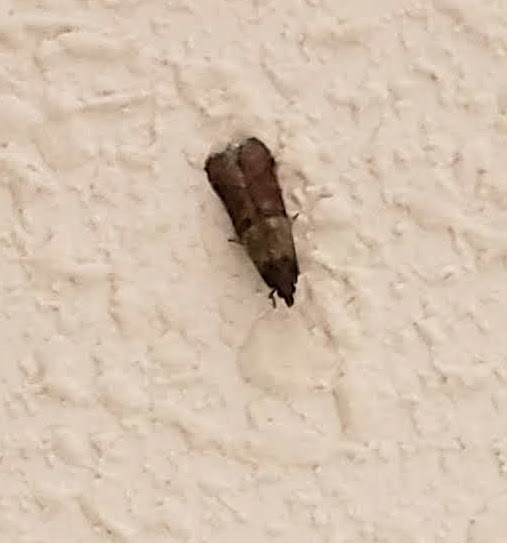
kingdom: Animalia
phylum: Arthropoda
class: Insecta
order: Lepidoptera
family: Pyralidae
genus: Plodia
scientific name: Plodia interpunctella
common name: Indian meal moth
